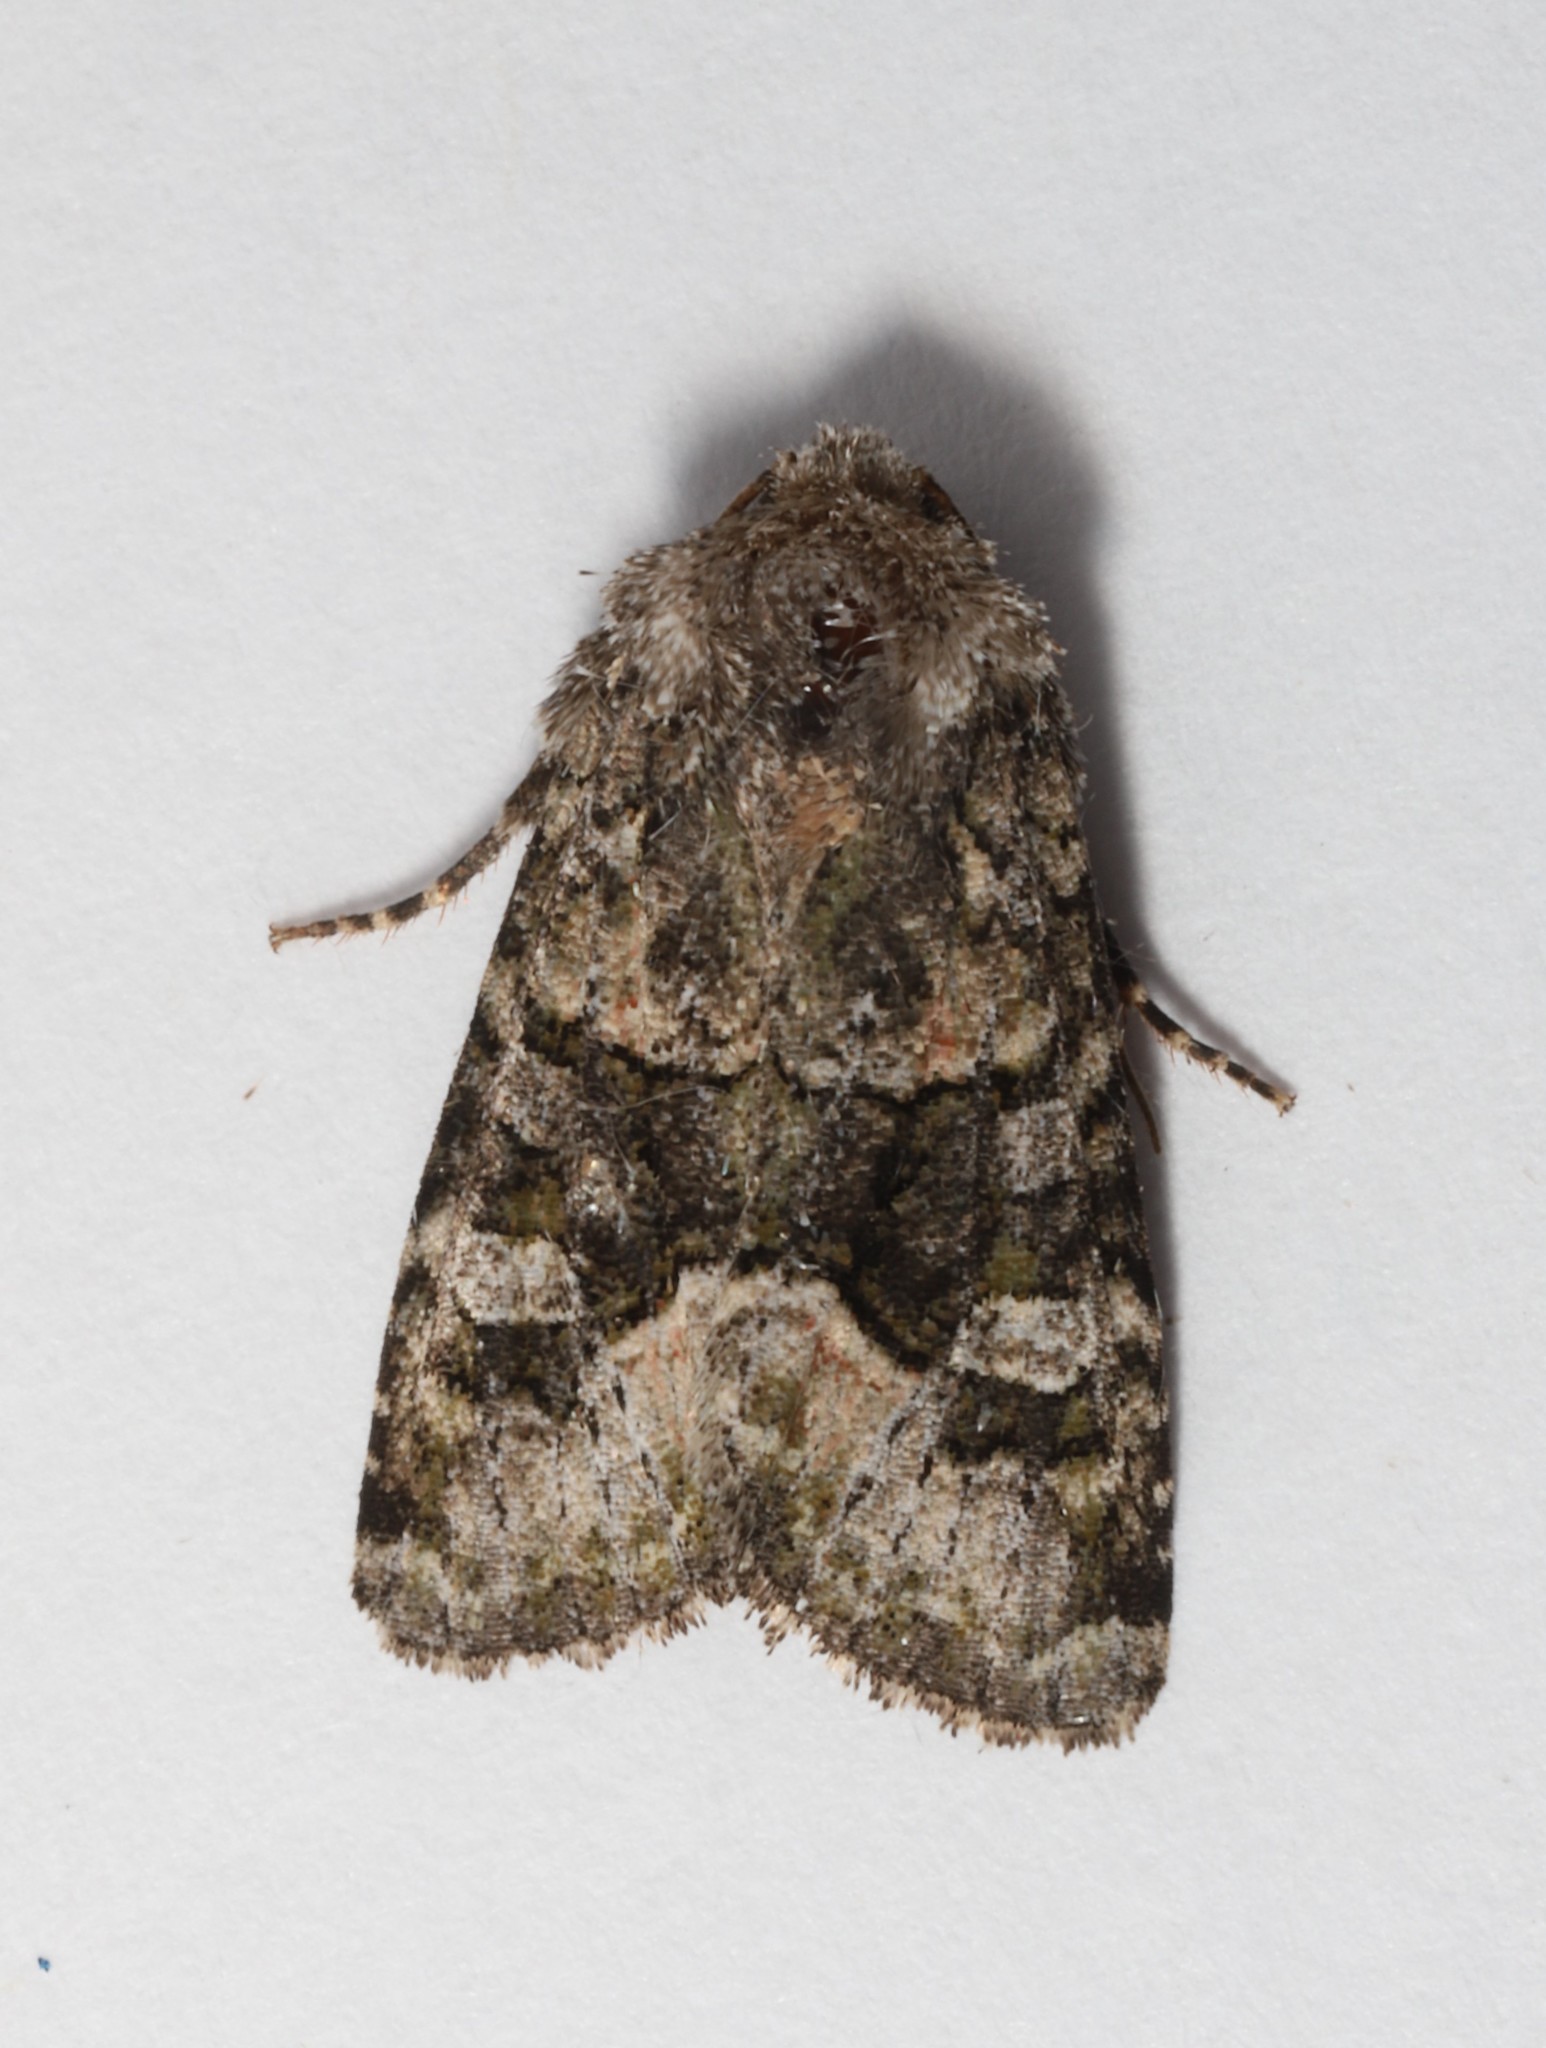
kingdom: Animalia
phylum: Arthropoda
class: Insecta
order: Lepidoptera
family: Noctuidae
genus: Lacinipolia
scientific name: Lacinipolia olivacea
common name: Olive arches moth
